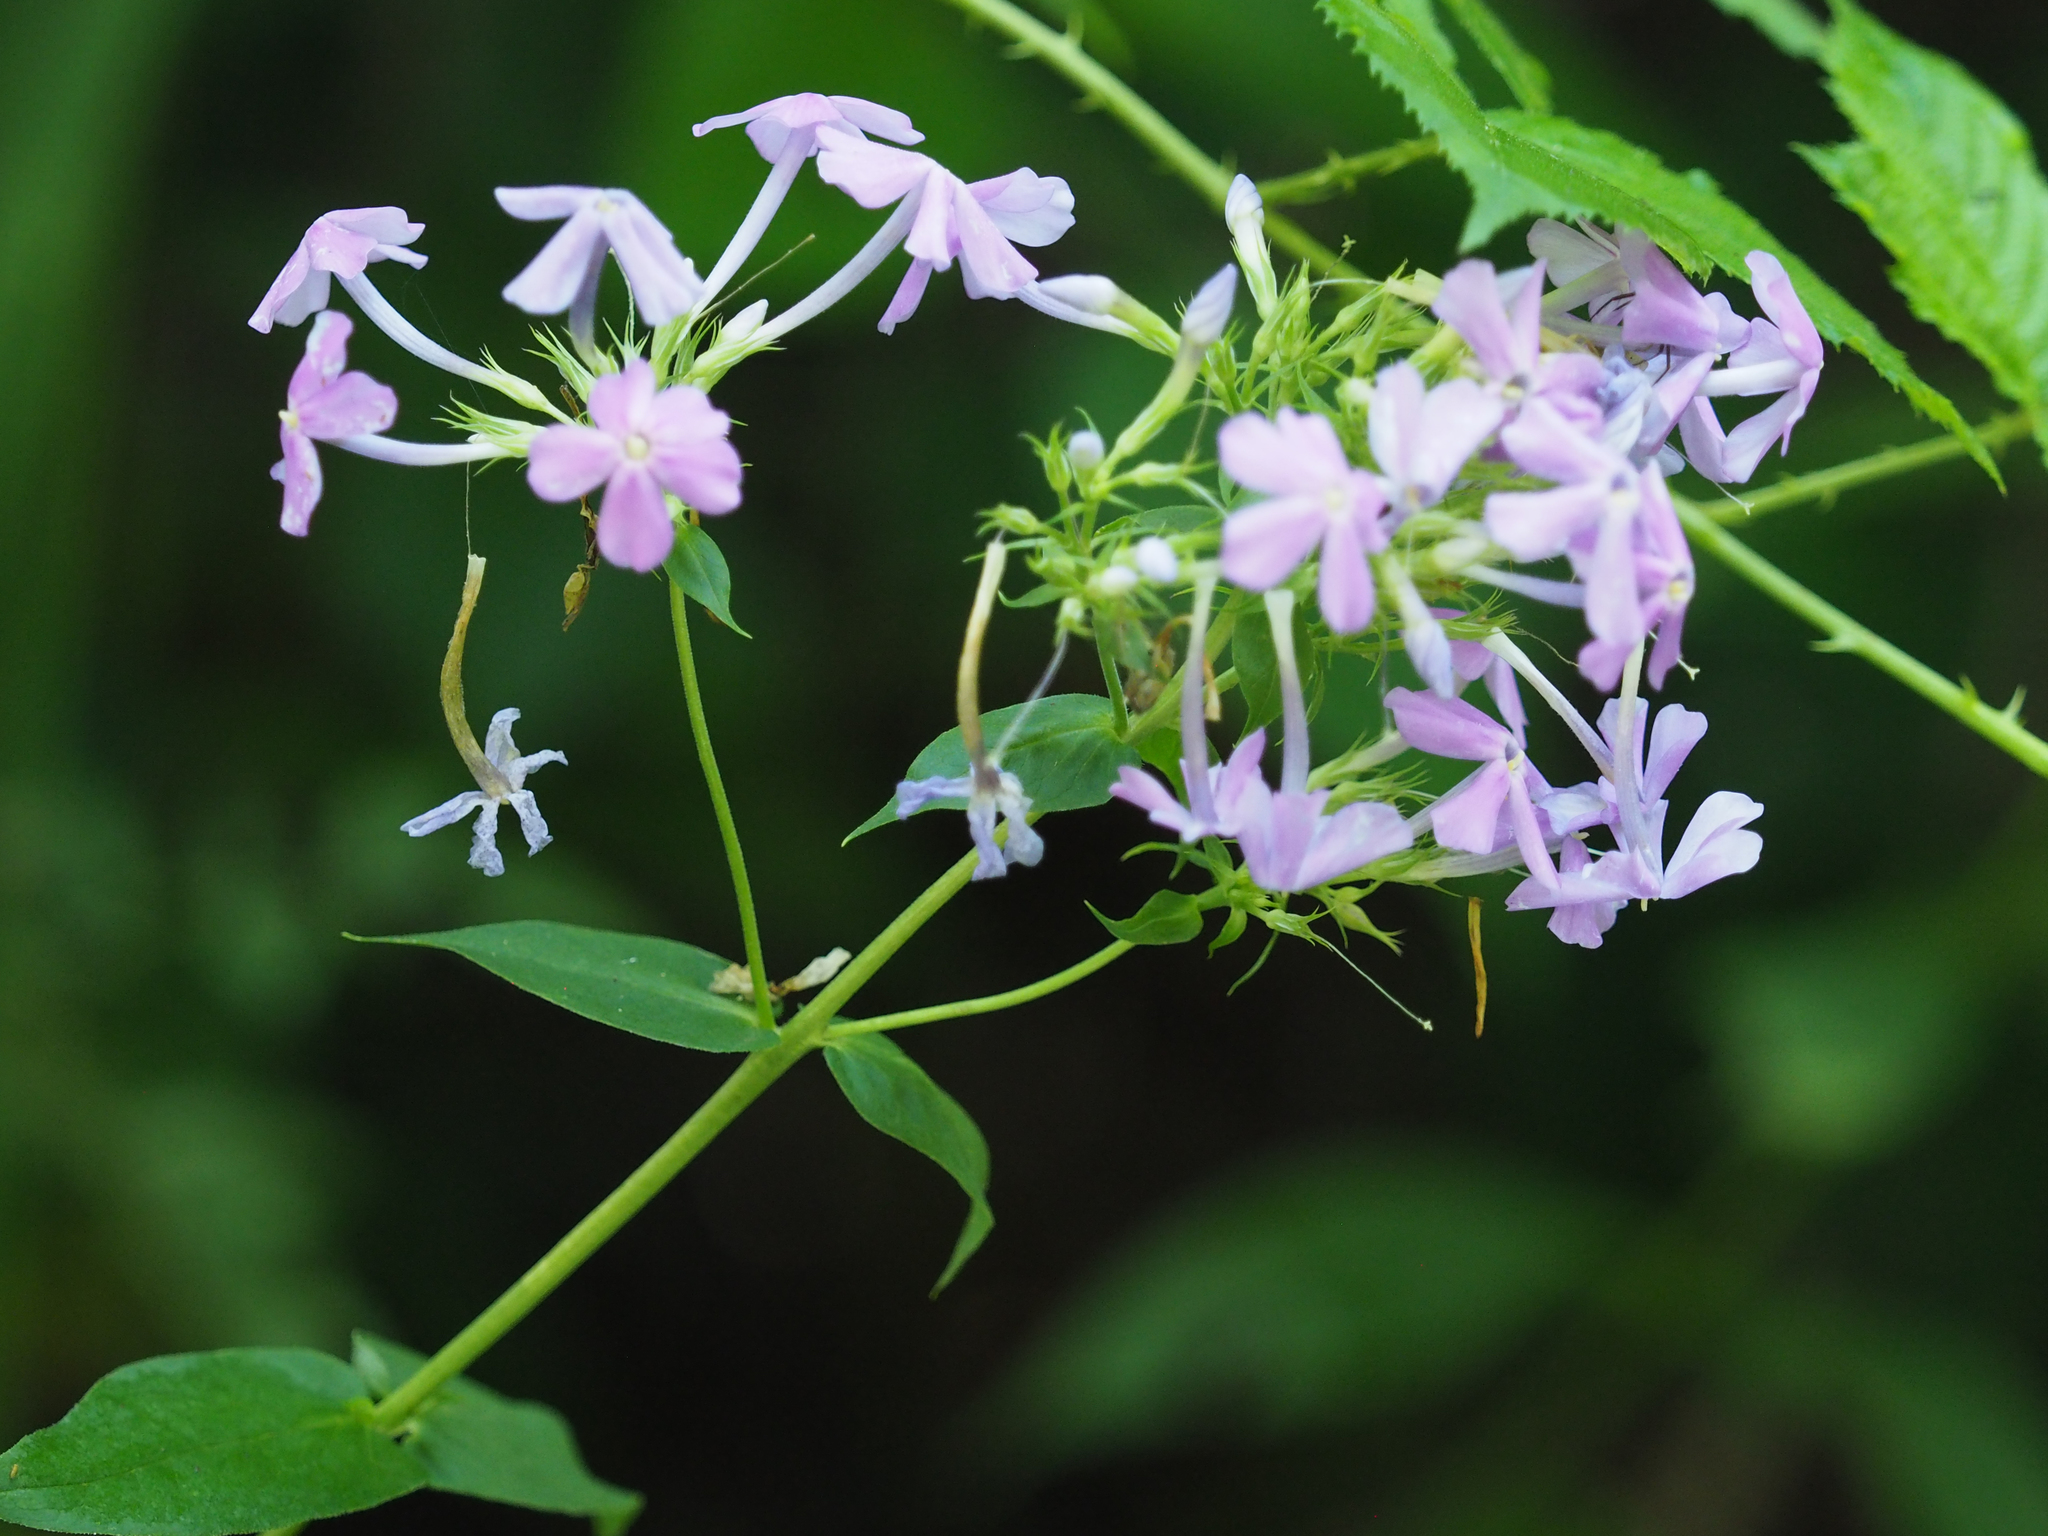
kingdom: Plantae
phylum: Tracheophyta
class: Magnoliopsida
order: Ericales
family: Polemoniaceae
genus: Phlox
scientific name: Phlox paniculata
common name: Fall phlox
